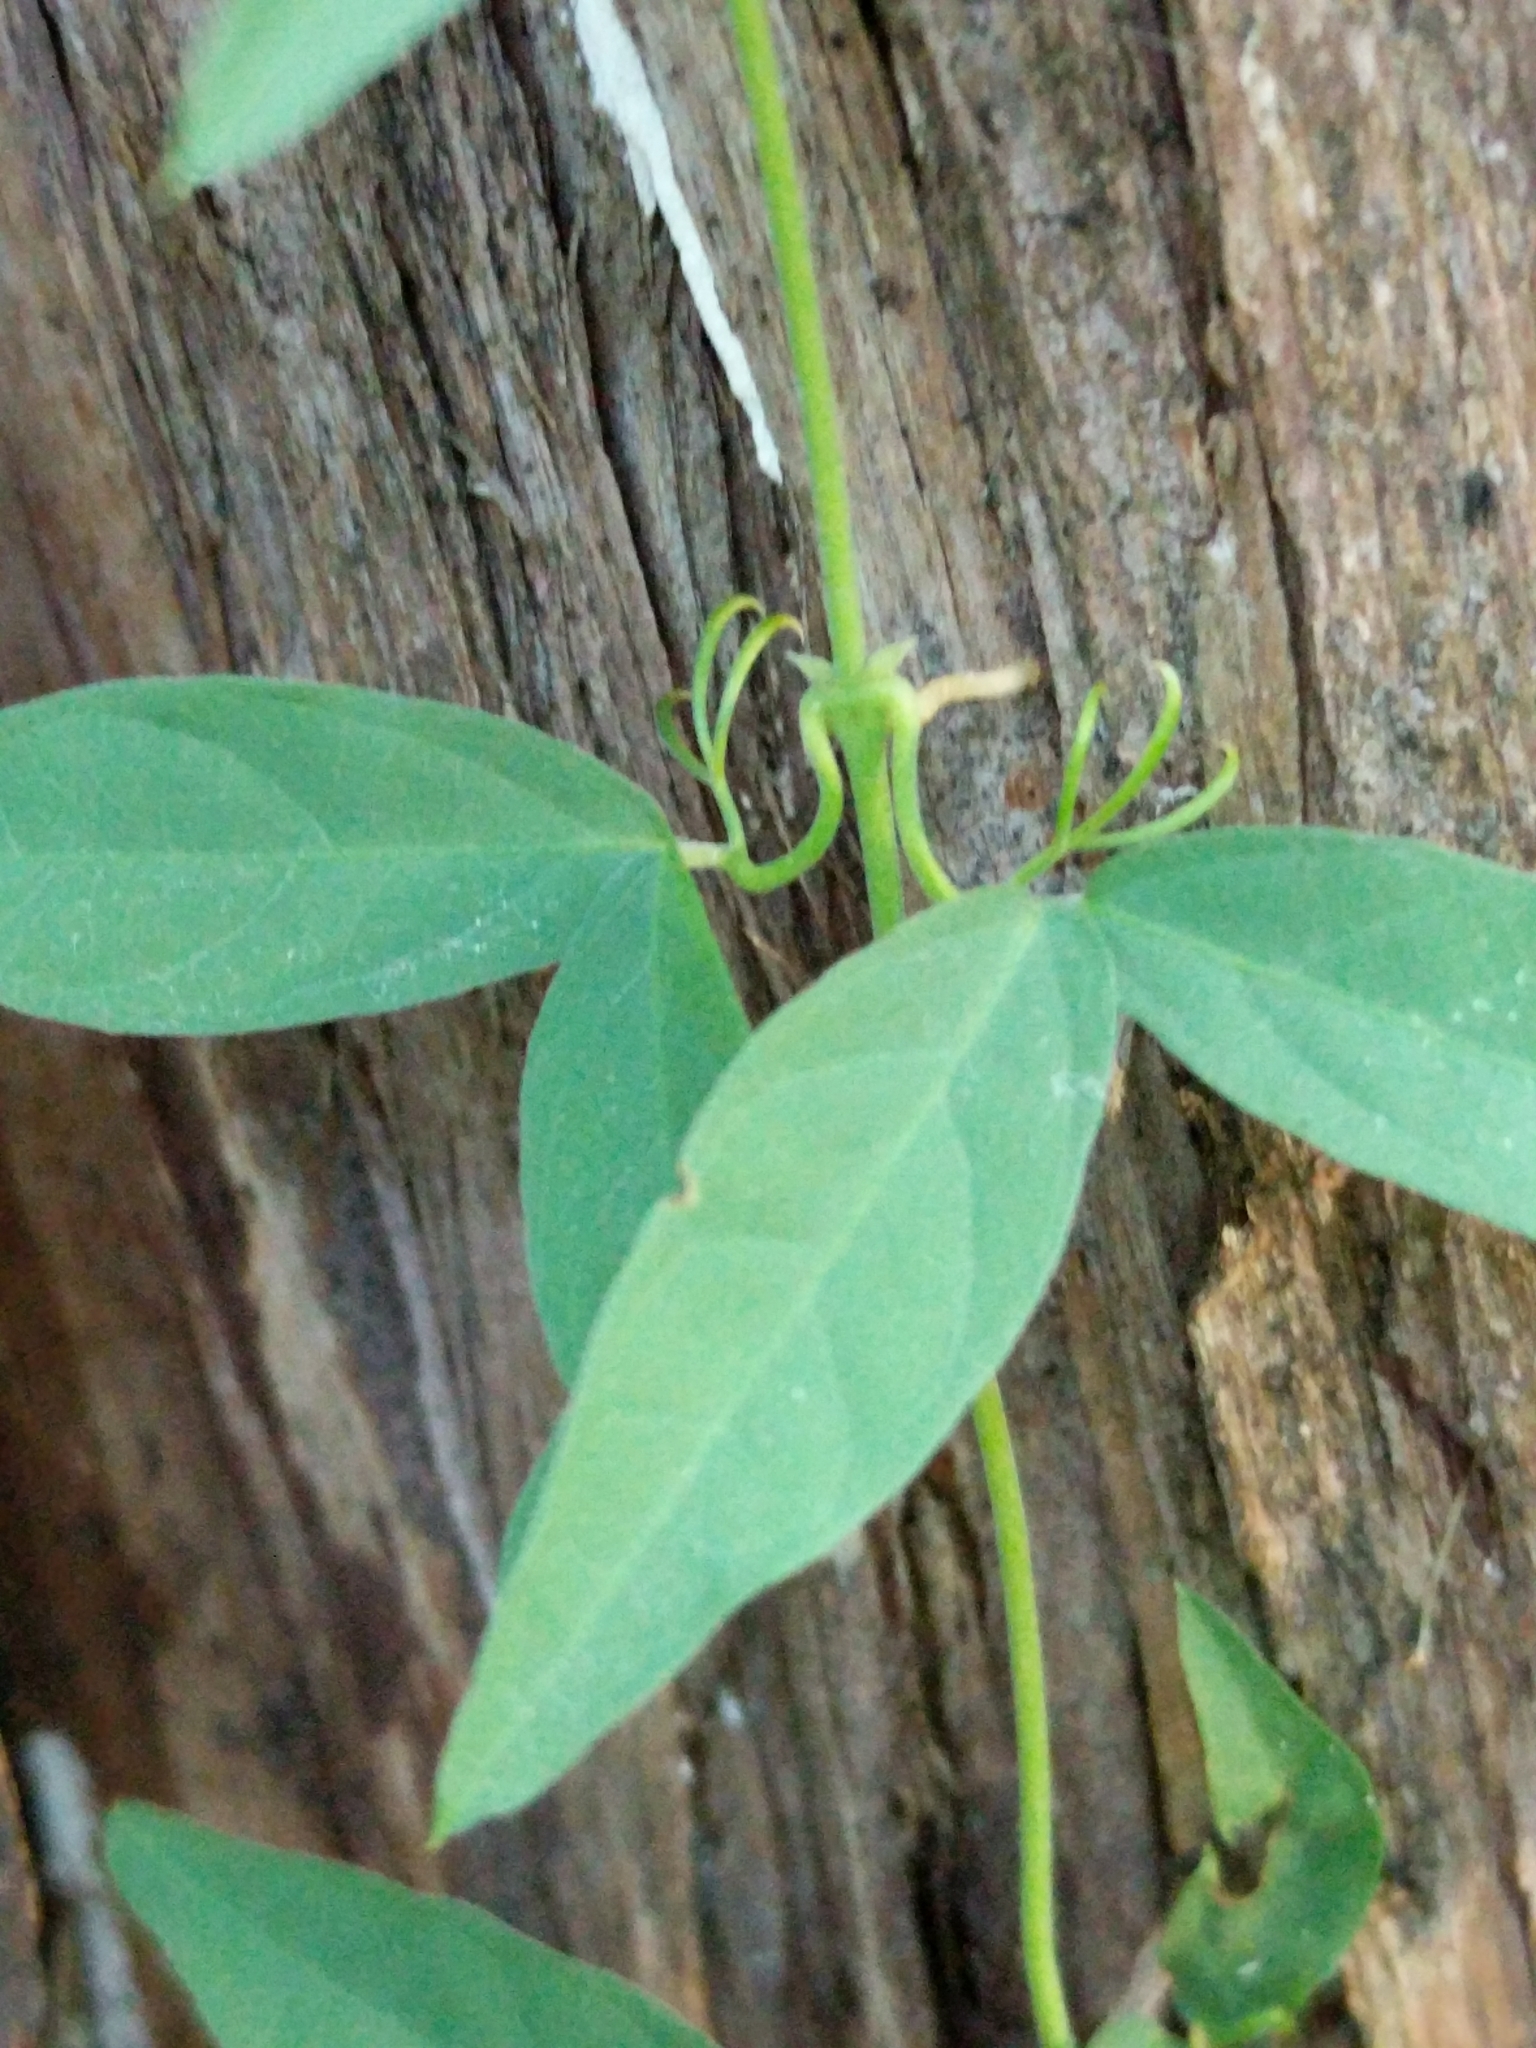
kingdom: Plantae
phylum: Tracheophyta
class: Magnoliopsida
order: Lamiales
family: Bignoniaceae
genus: Dolichandra
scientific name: Dolichandra unguis-cati
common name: Catclaw vine
